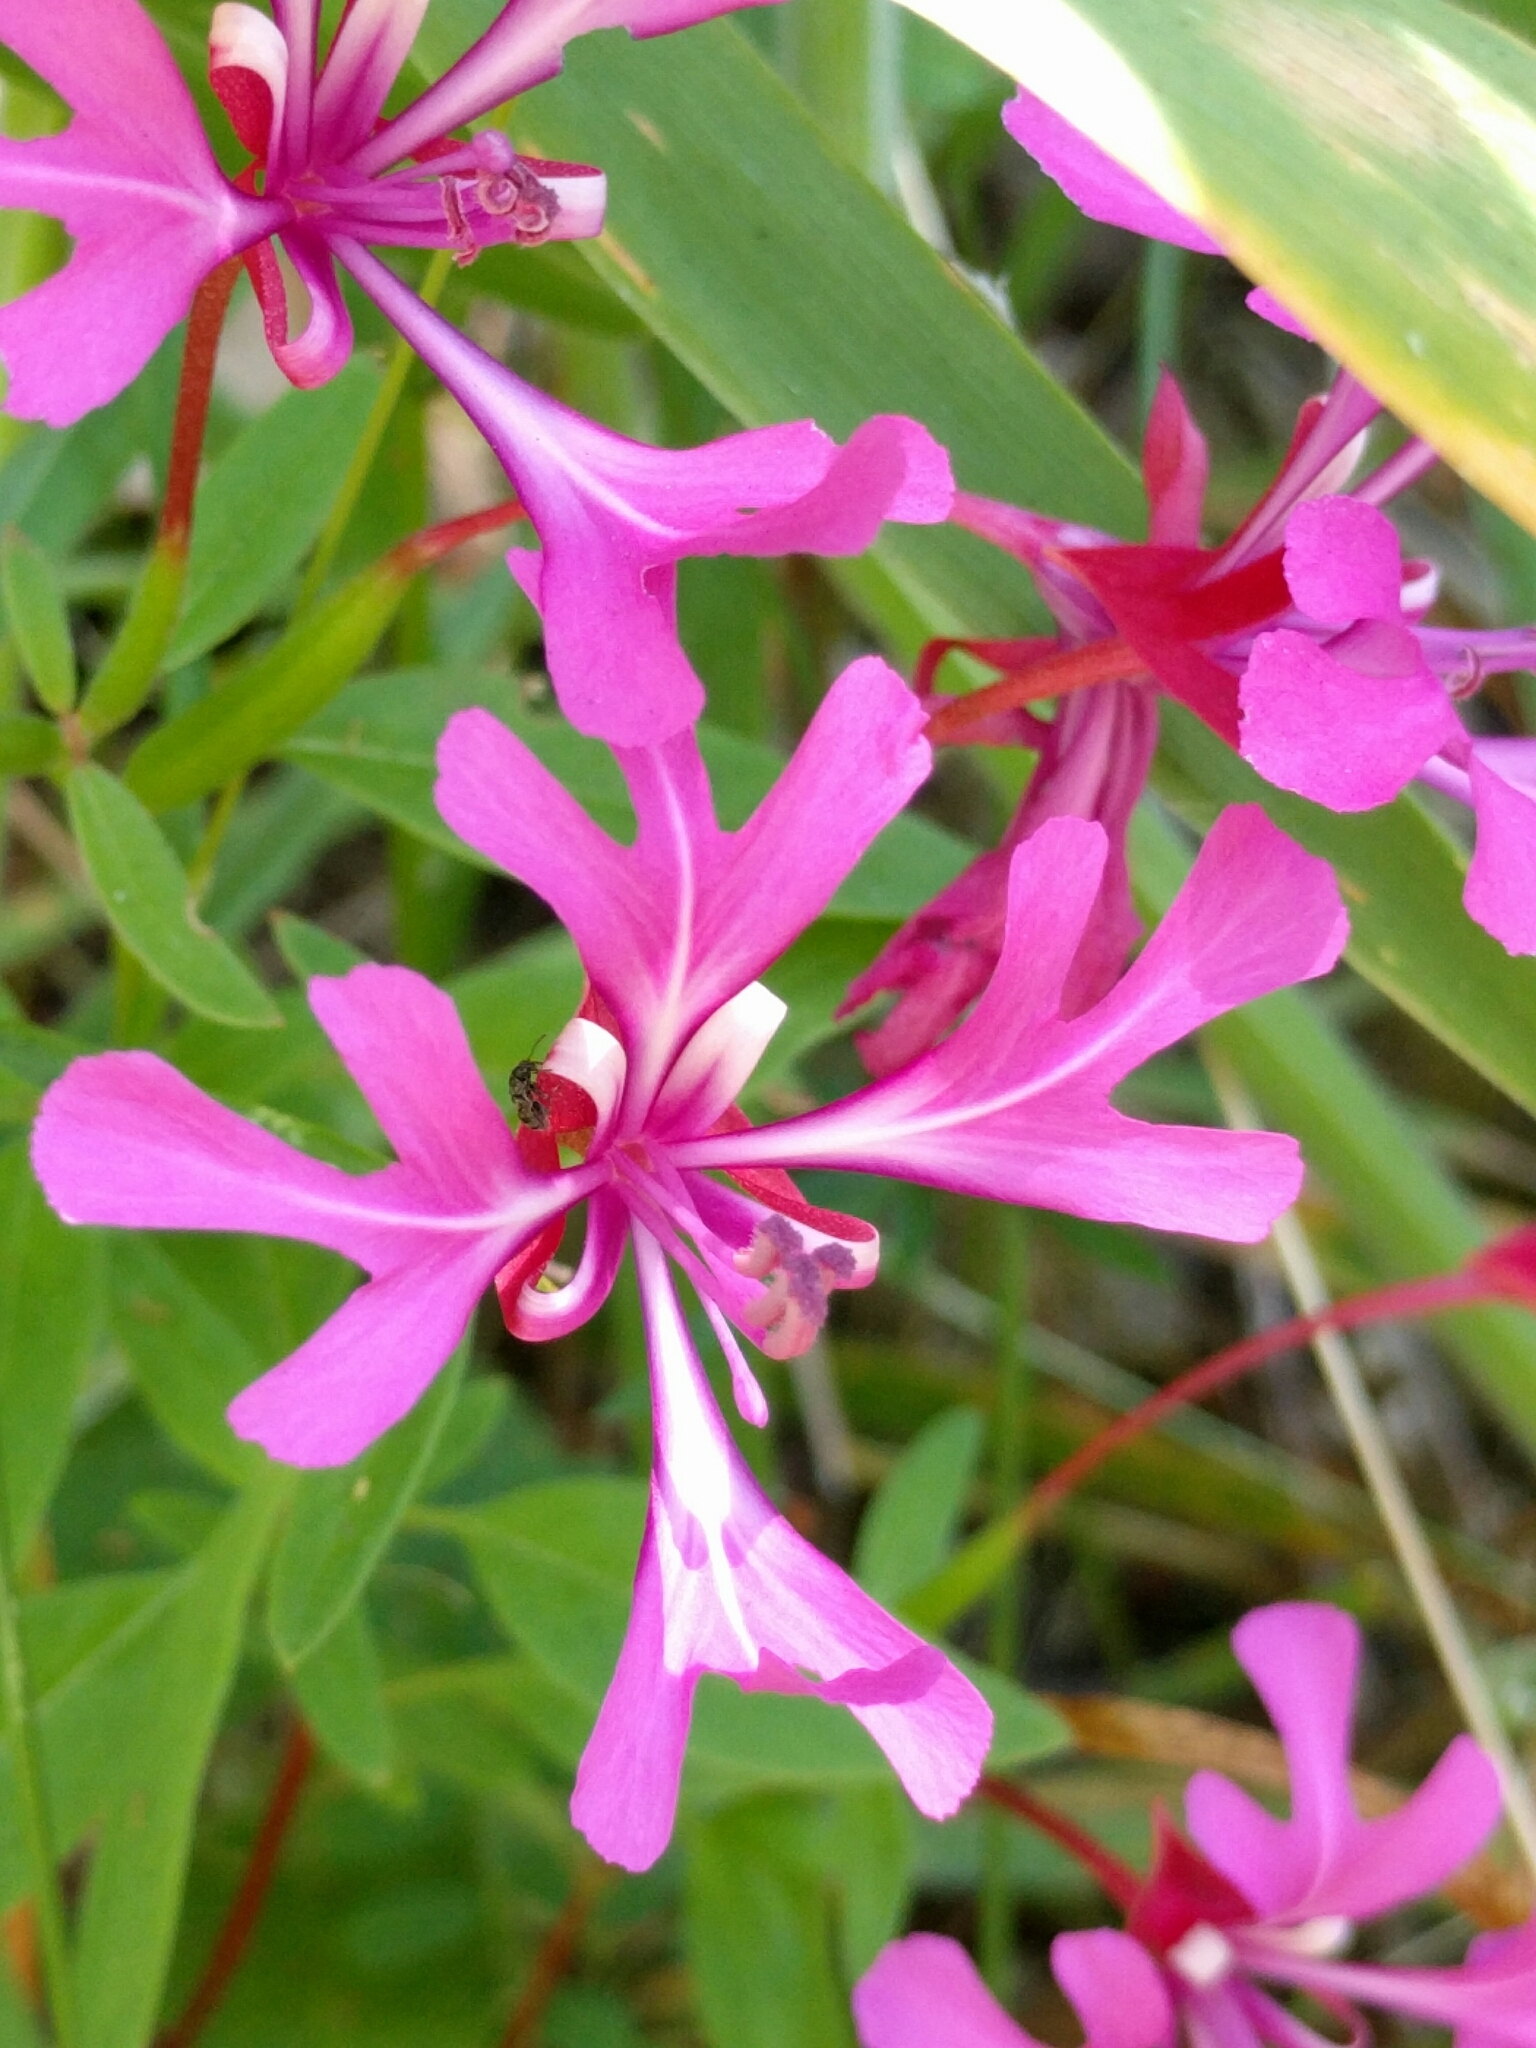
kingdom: Plantae
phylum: Tracheophyta
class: Magnoliopsida
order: Myrtales
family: Onagraceae
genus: Clarkia
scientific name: Clarkia concinna
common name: Red-ribbons
